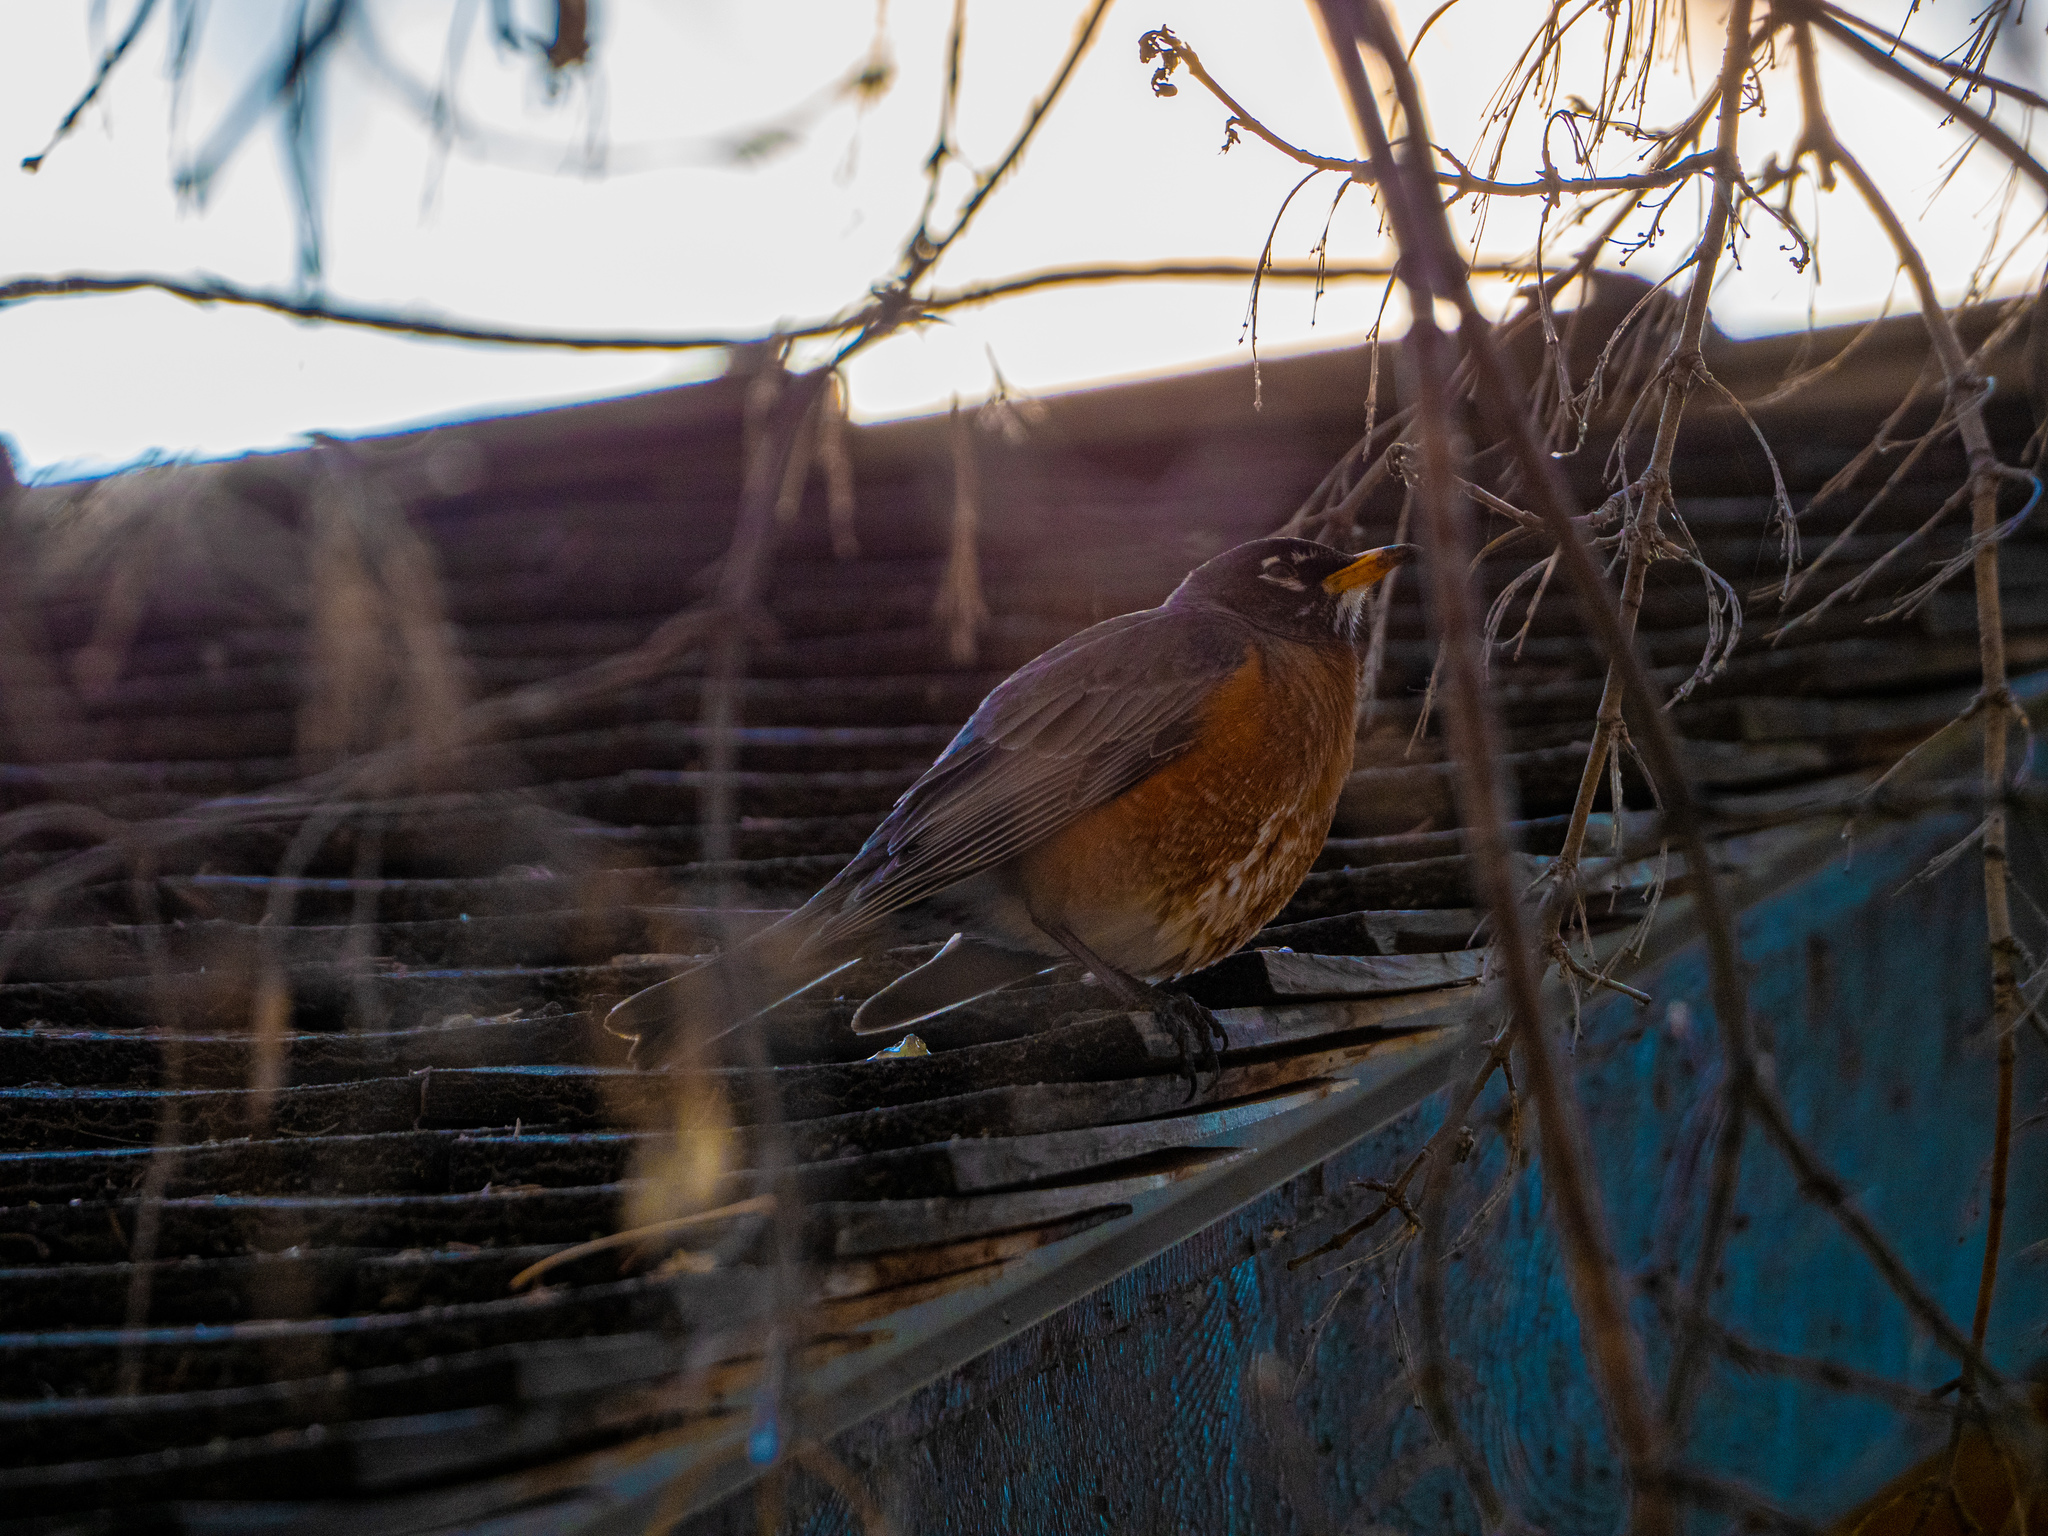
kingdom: Animalia
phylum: Chordata
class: Aves
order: Passeriformes
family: Turdidae
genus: Turdus
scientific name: Turdus migratorius
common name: American robin
